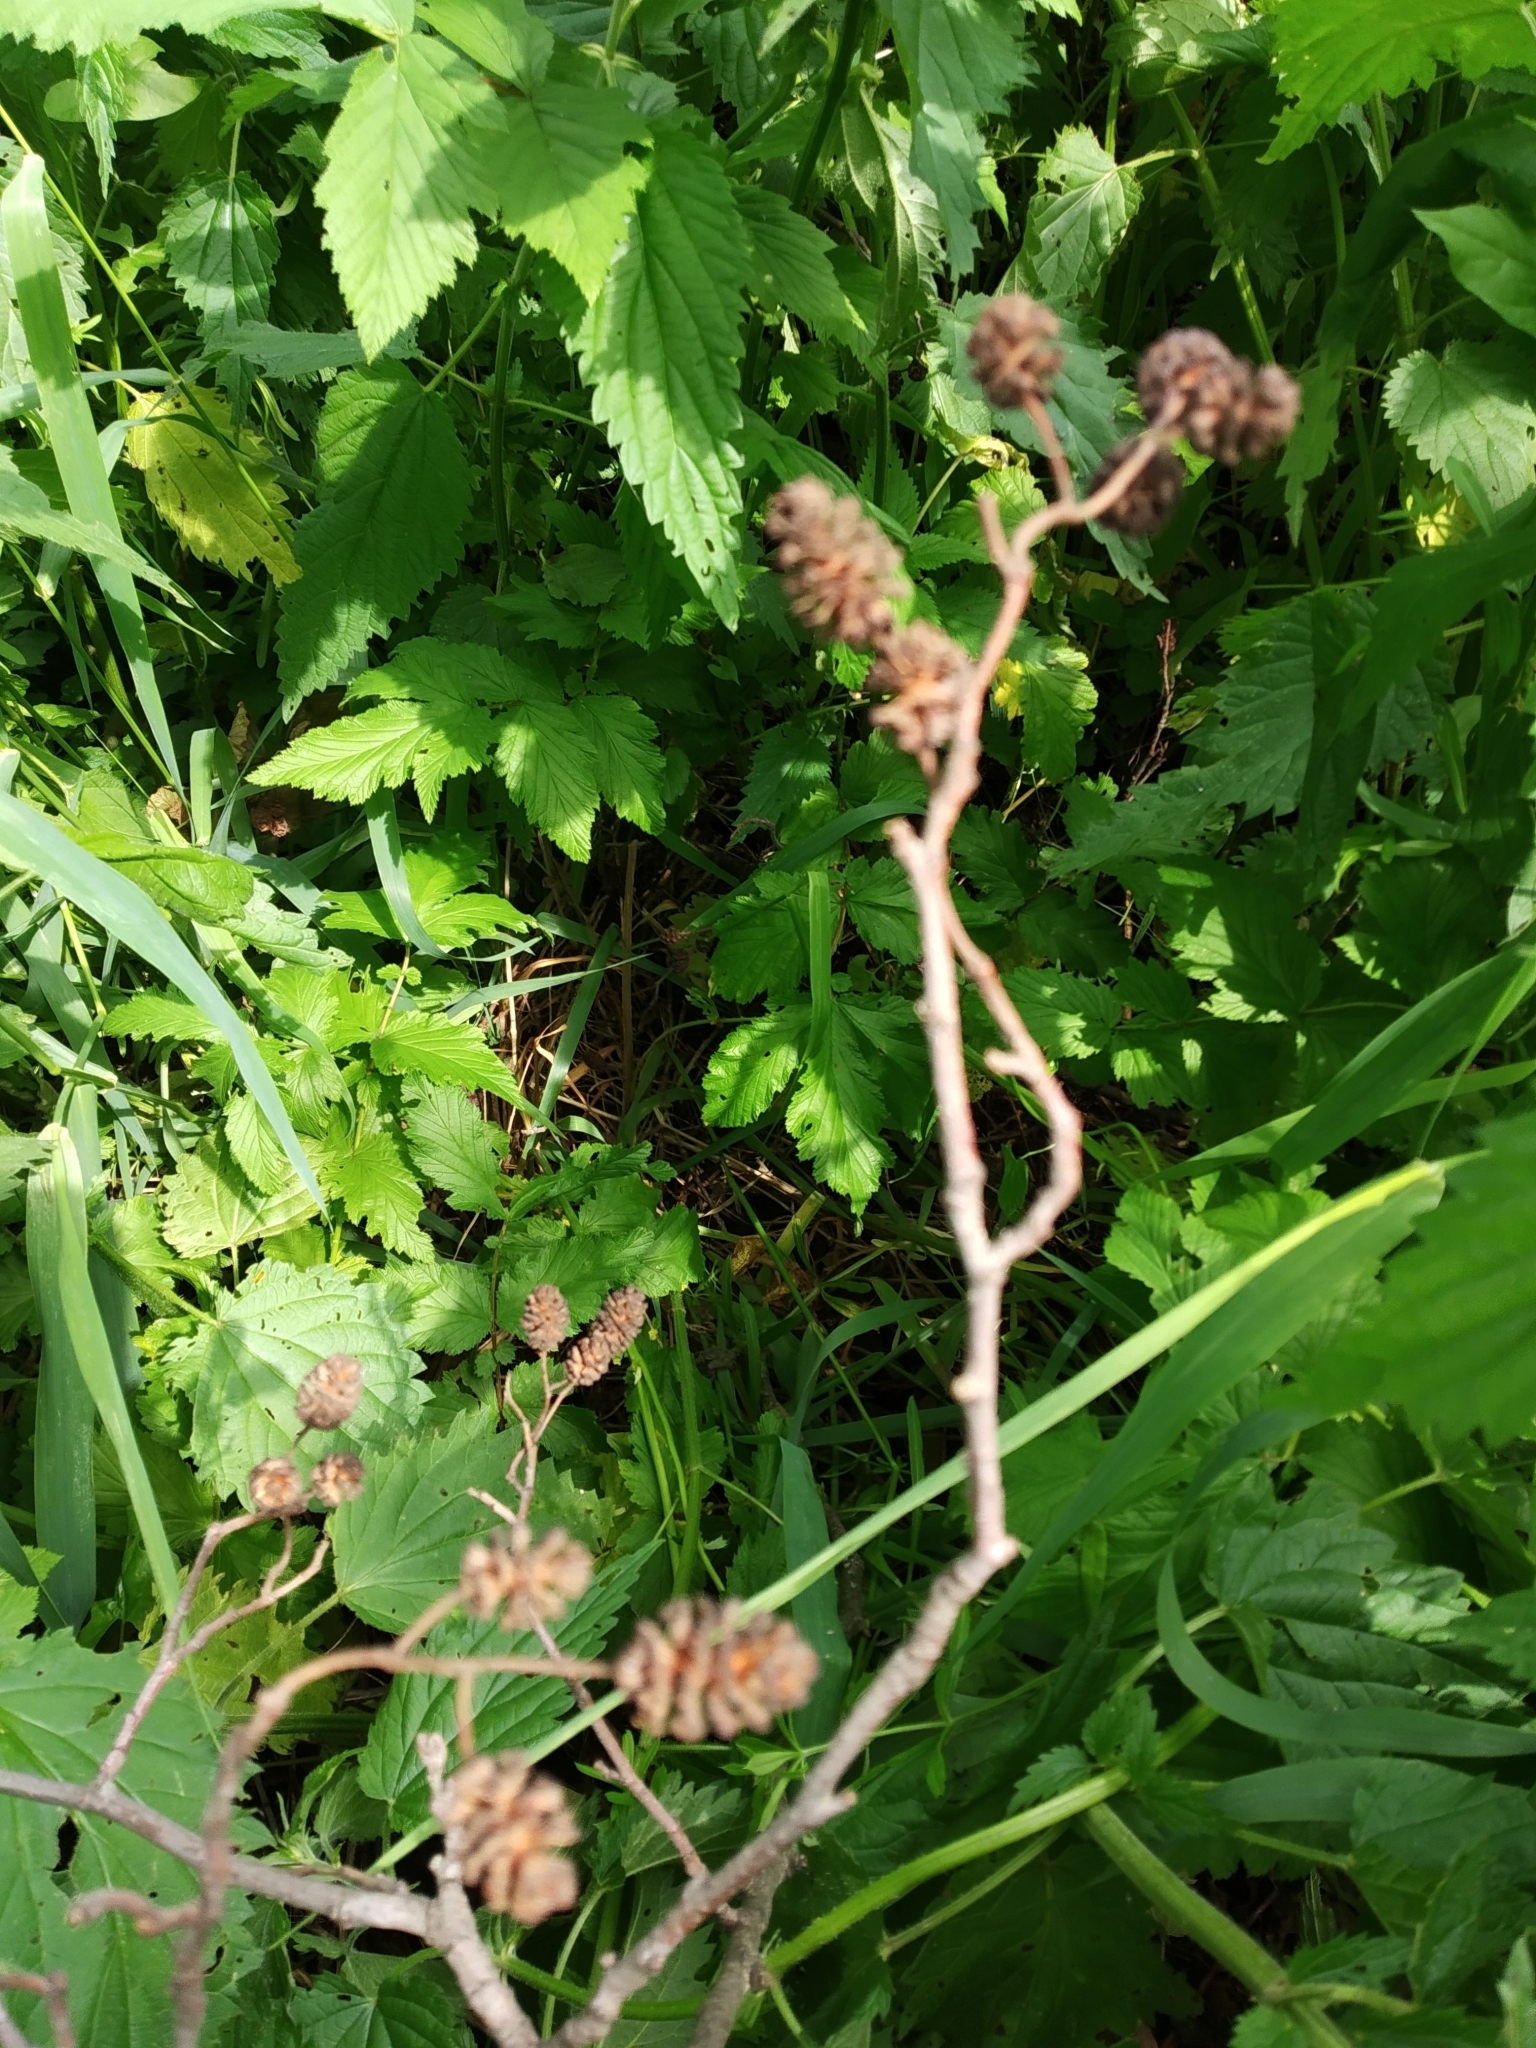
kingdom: Plantae
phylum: Tracheophyta
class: Magnoliopsida
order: Fagales
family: Betulaceae
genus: Alnus
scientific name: Alnus glutinosa
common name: Black alder
